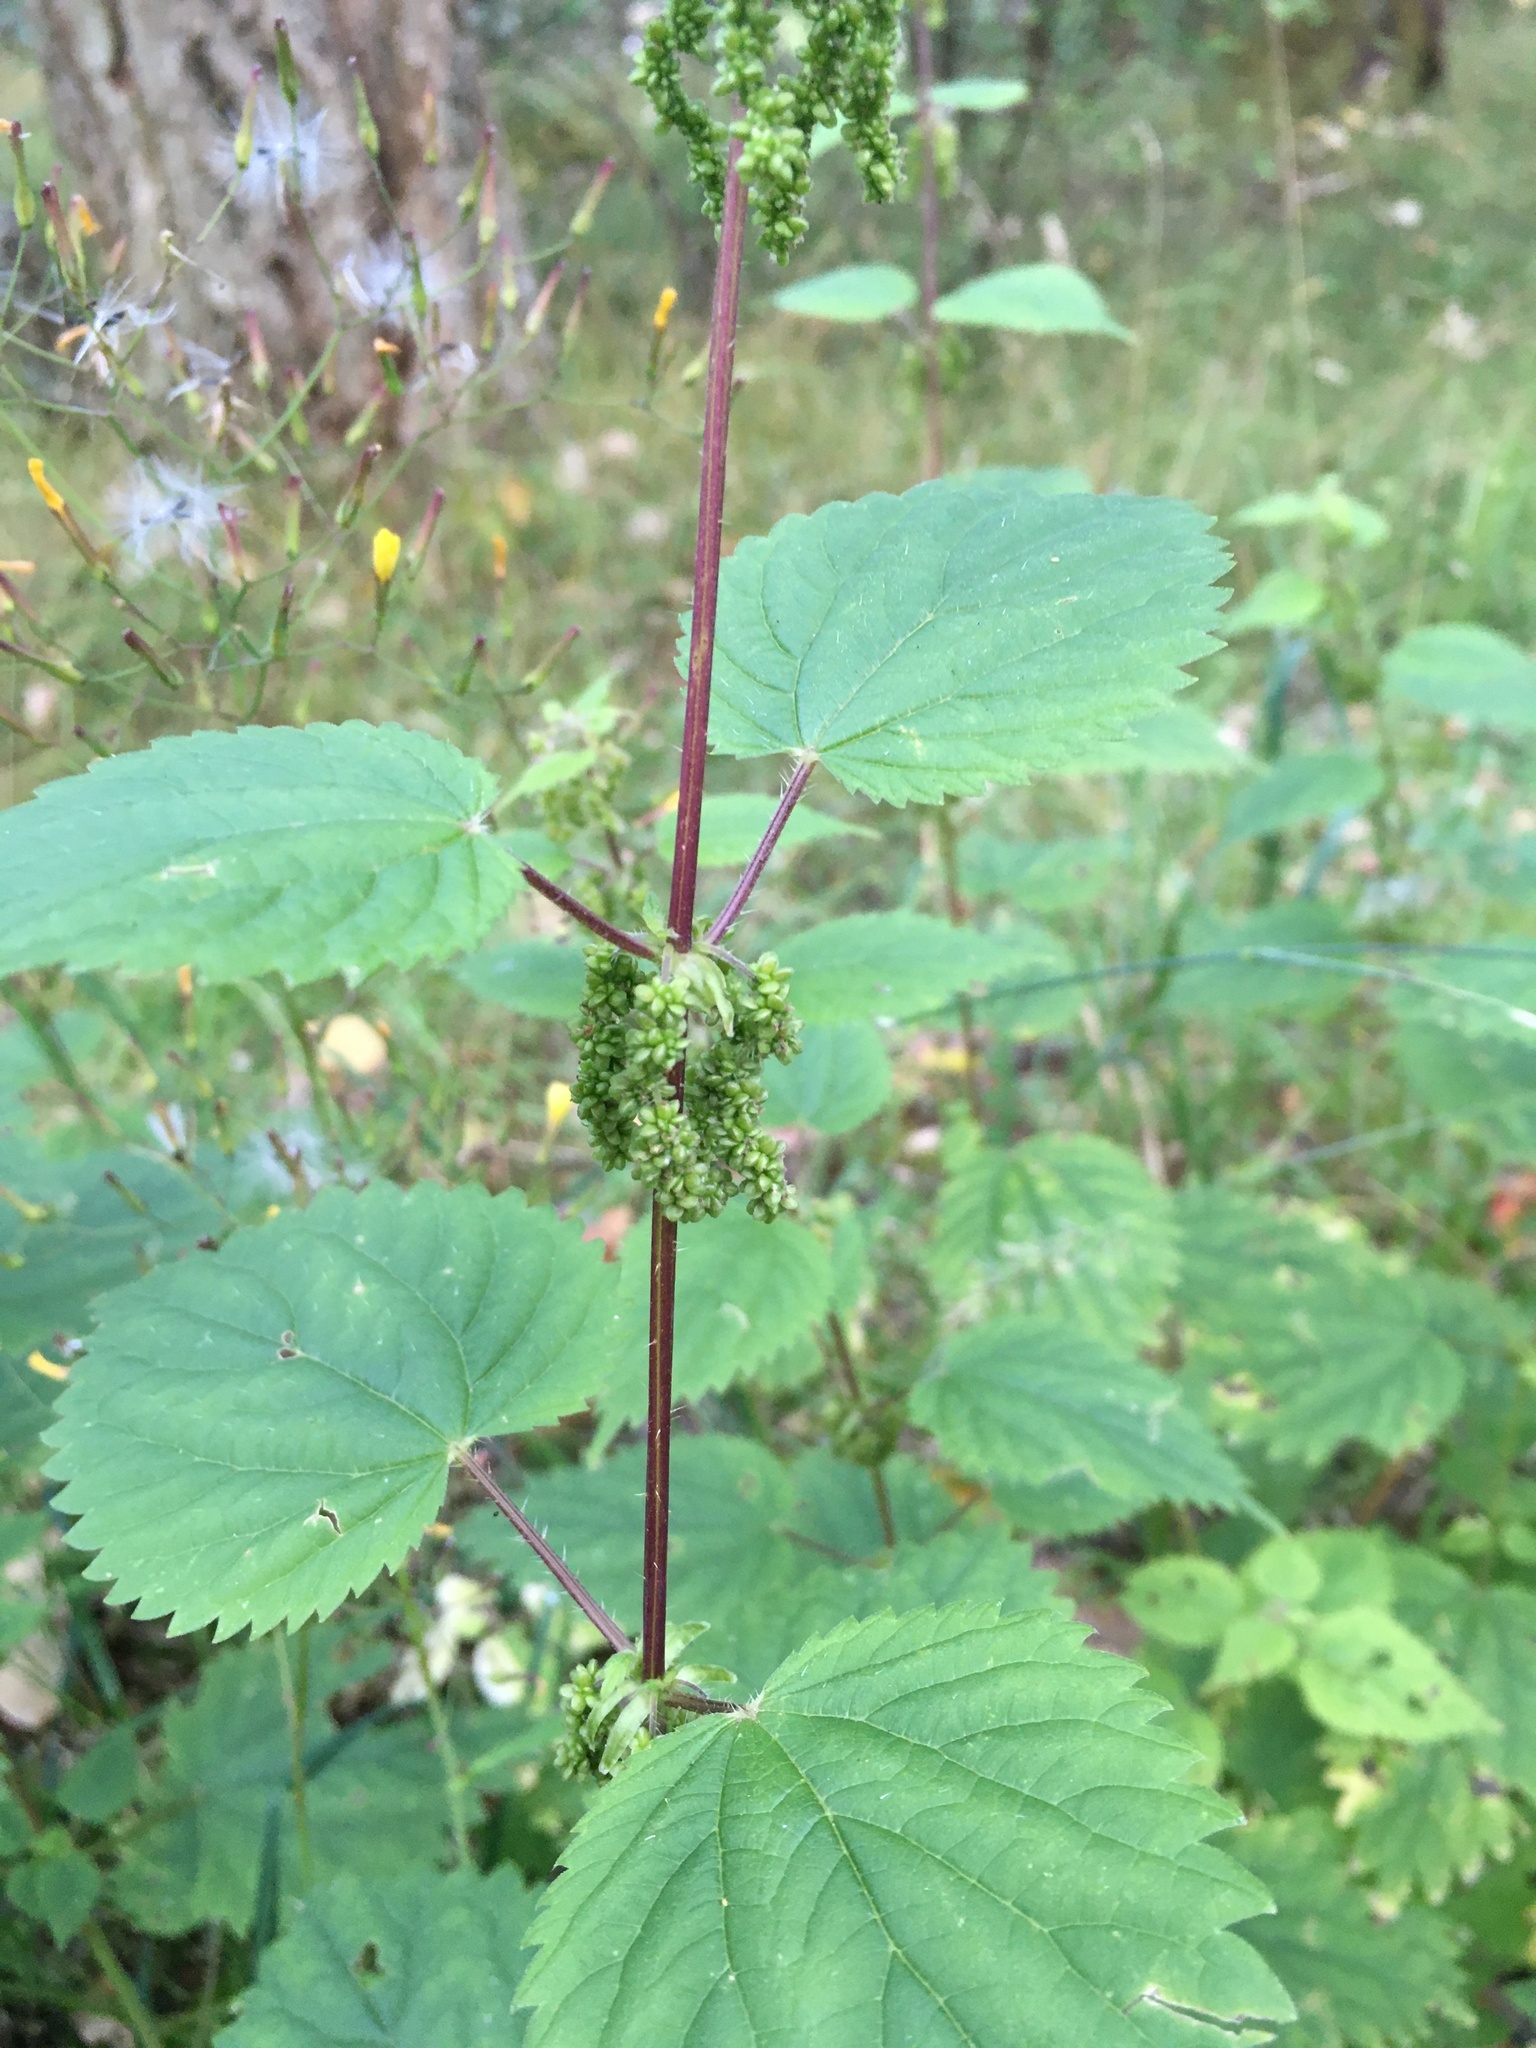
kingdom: Plantae
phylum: Tracheophyta
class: Magnoliopsida
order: Rosales
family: Urticaceae
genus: Urtica
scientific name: Urtica dioica
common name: Common nettle
